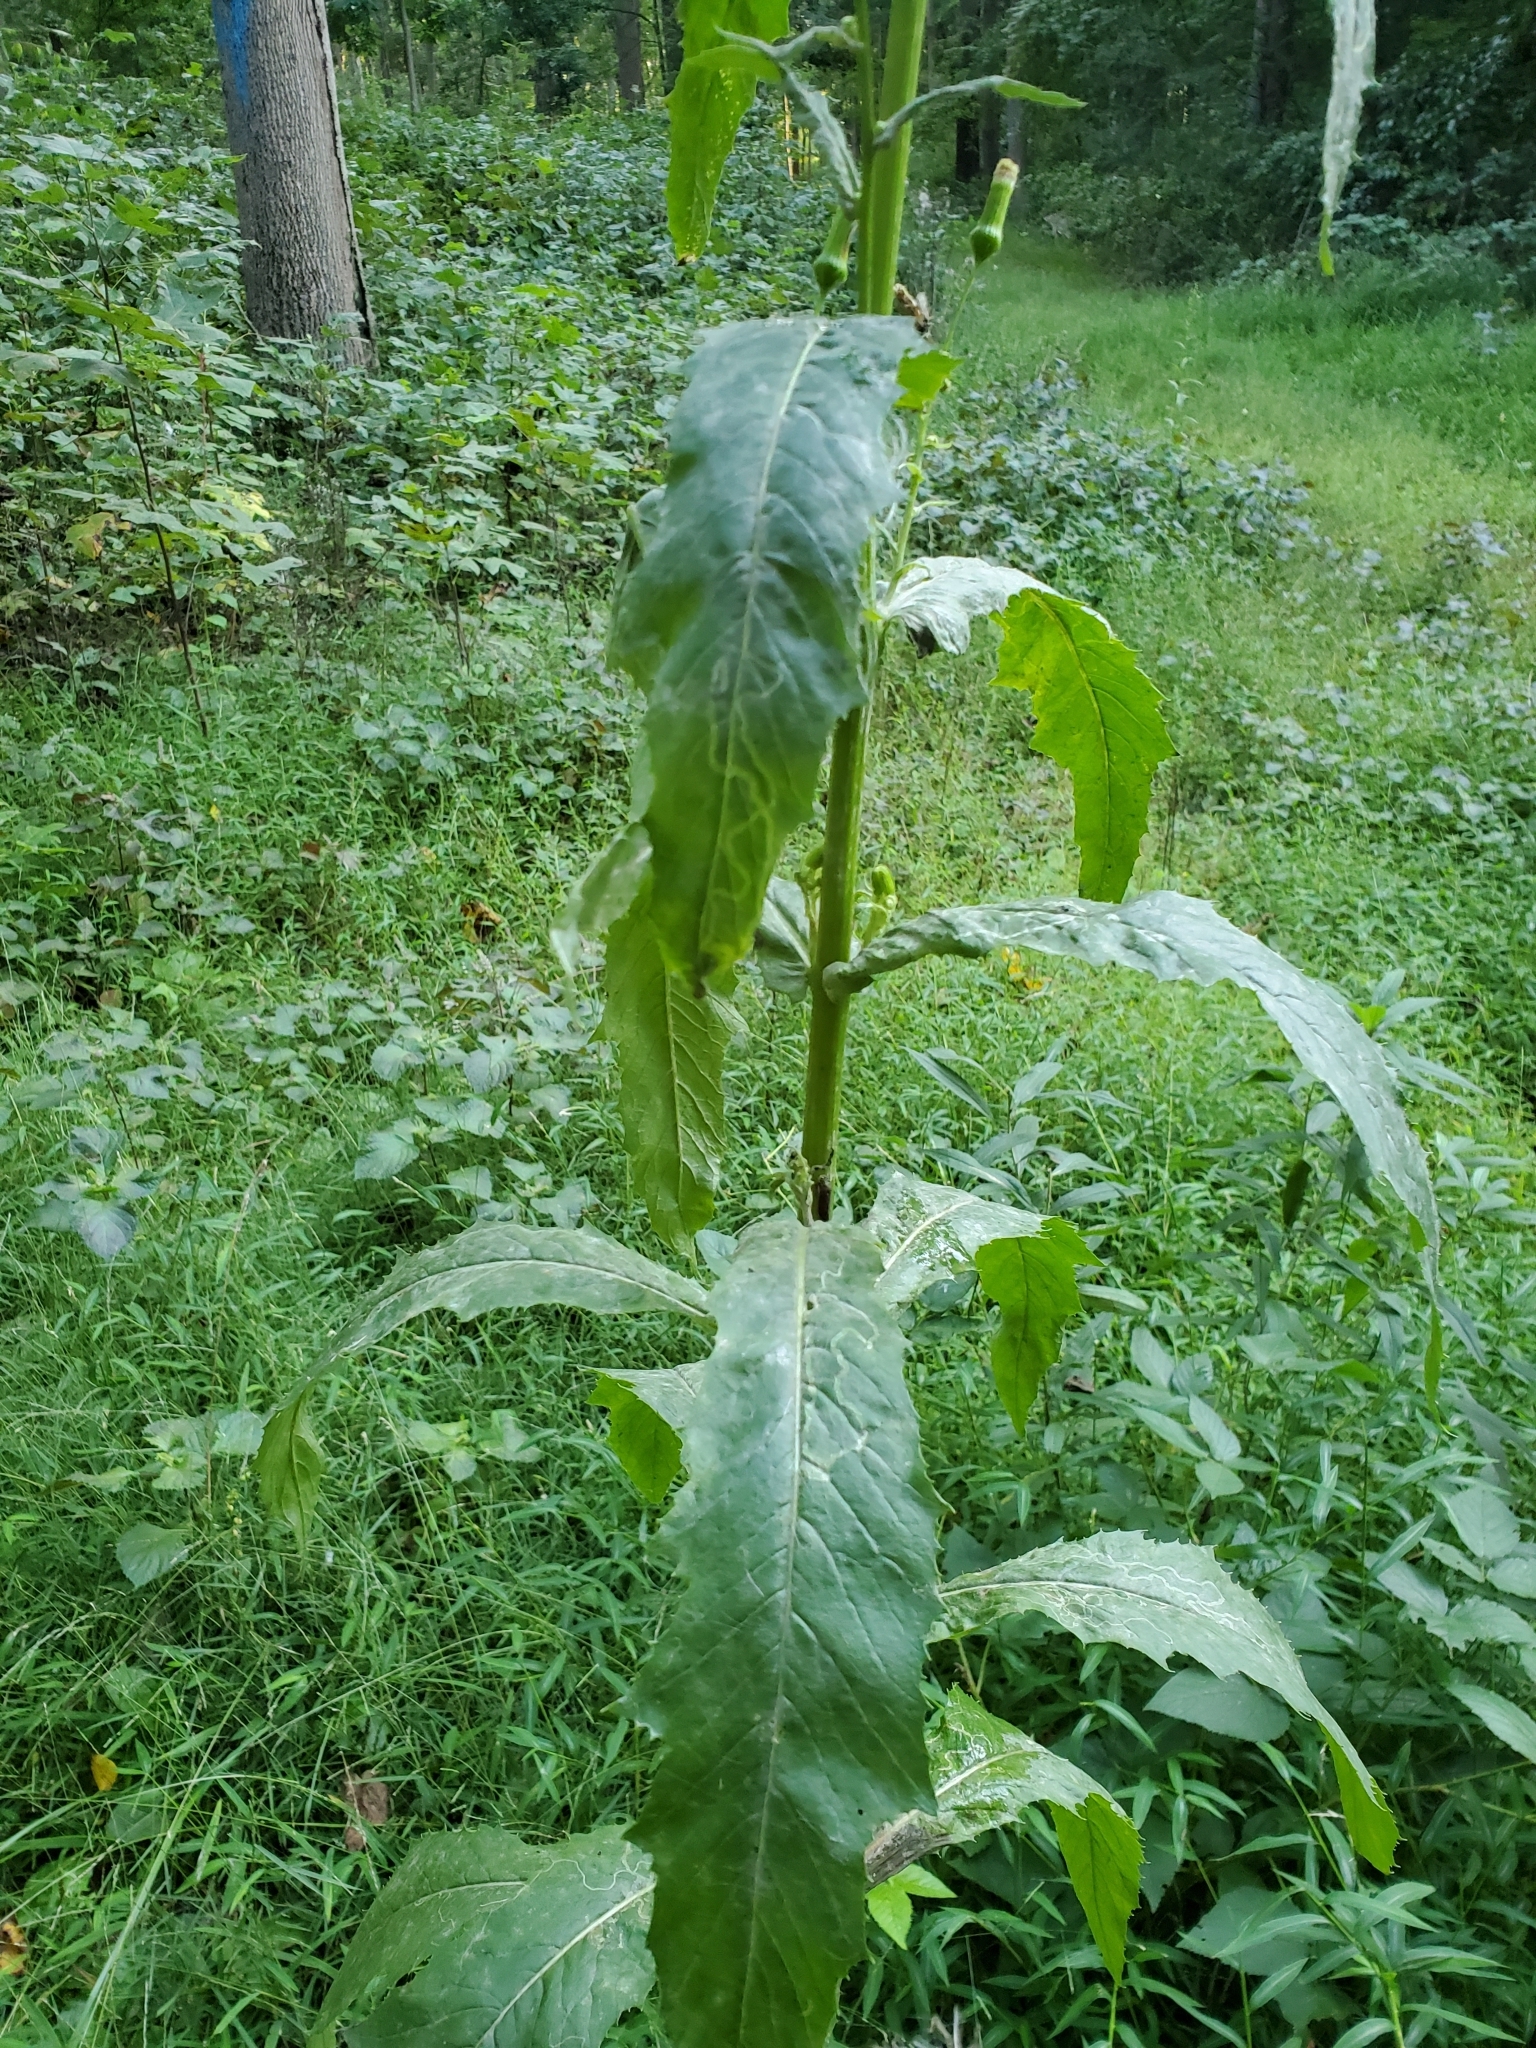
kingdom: Plantae
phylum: Tracheophyta
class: Magnoliopsida
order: Asterales
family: Asteraceae
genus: Erechtites
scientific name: Erechtites hieraciifolius
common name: American burnweed
